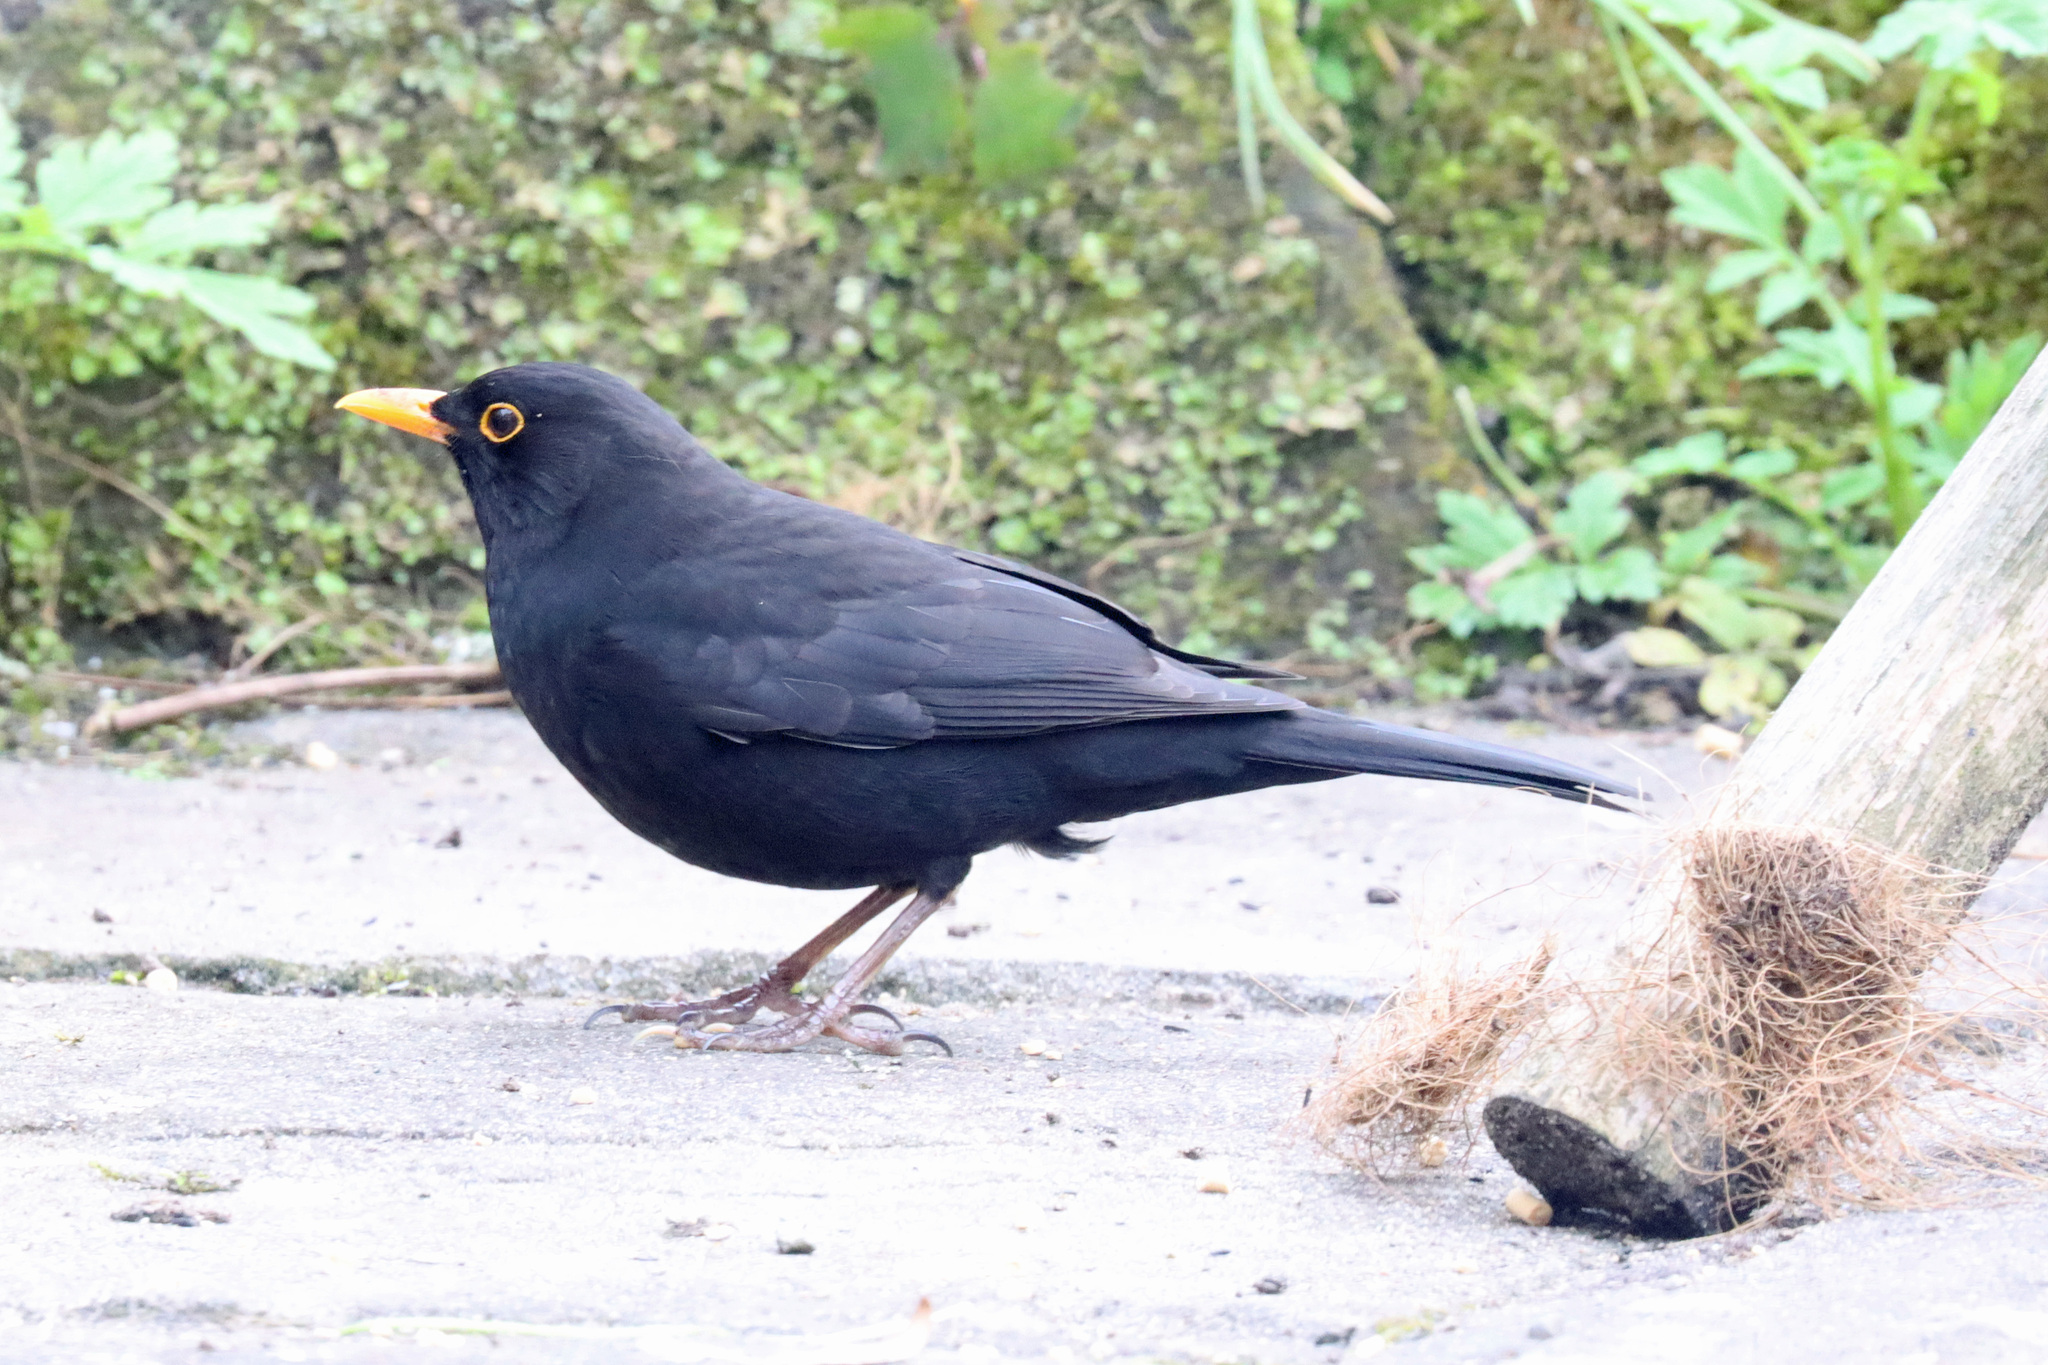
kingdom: Animalia
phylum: Chordata
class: Aves
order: Passeriformes
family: Turdidae
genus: Turdus
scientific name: Turdus merula
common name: Common blackbird
